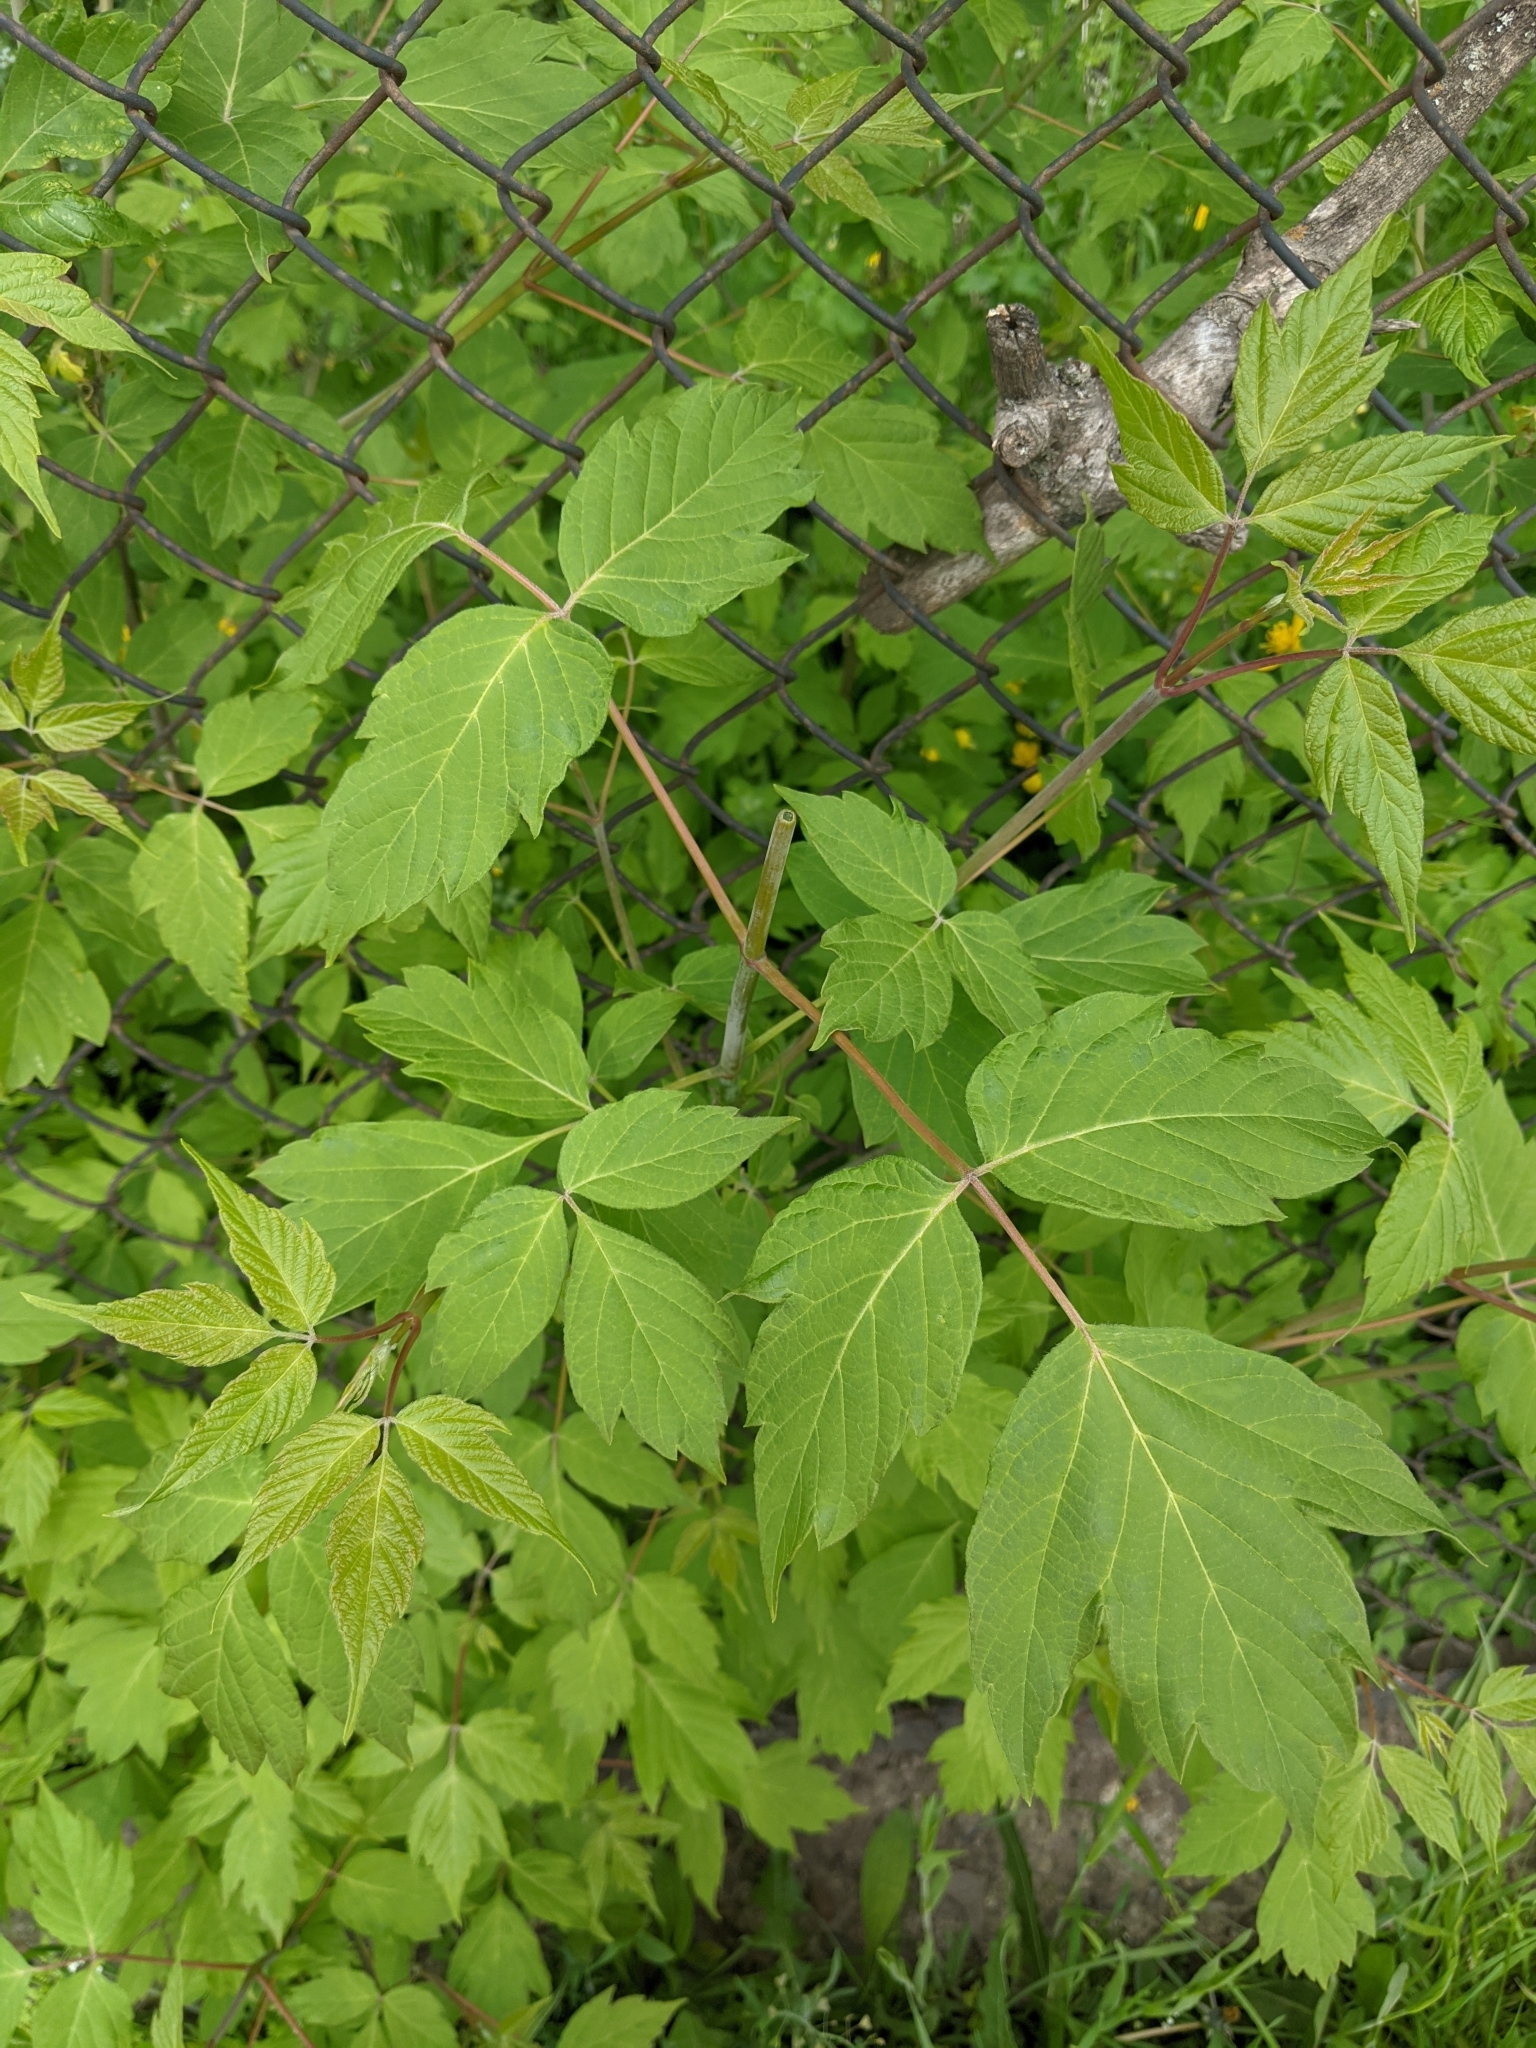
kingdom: Plantae
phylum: Tracheophyta
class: Magnoliopsida
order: Sapindales
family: Sapindaceae
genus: Acer
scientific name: Acer negundo
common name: Ashleaf maple
